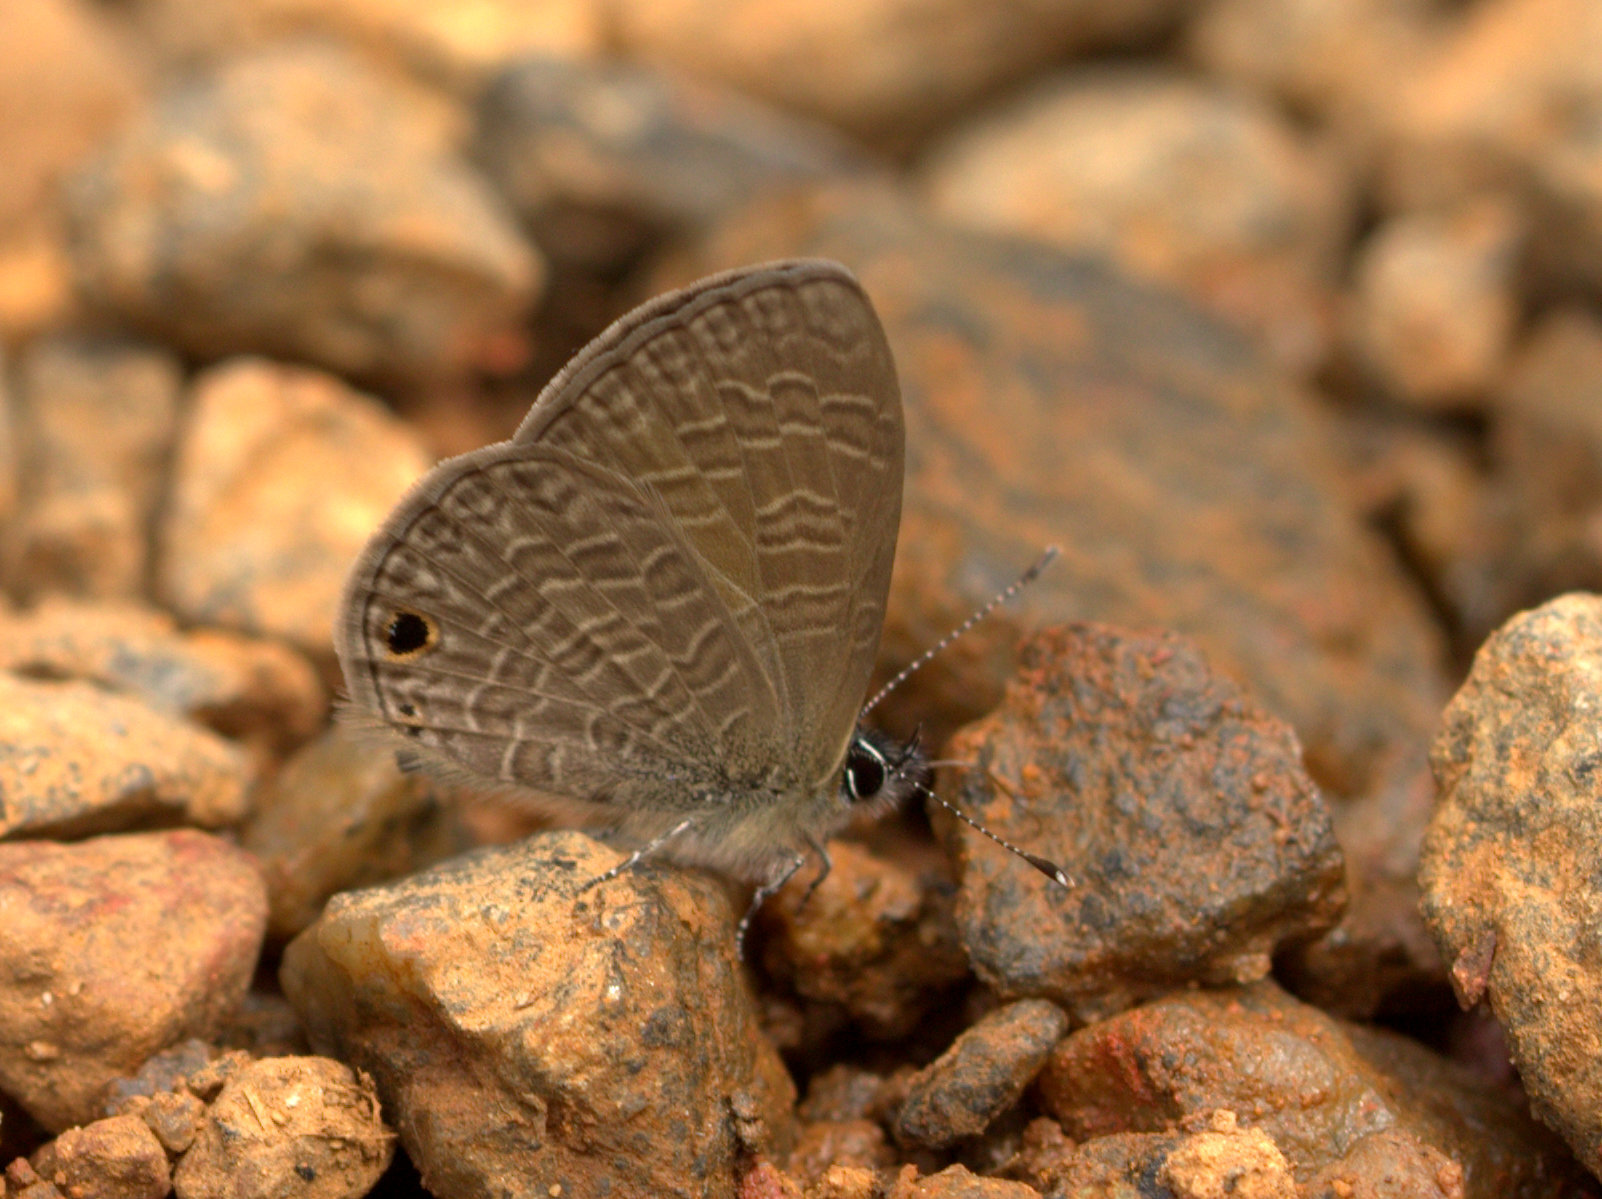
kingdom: Animalia
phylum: Arthropoda
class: Insecta
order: Lepidoptera
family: Lycaenidae
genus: Prosotas
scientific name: Prosotas dubiosa
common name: Tailless lineblue
